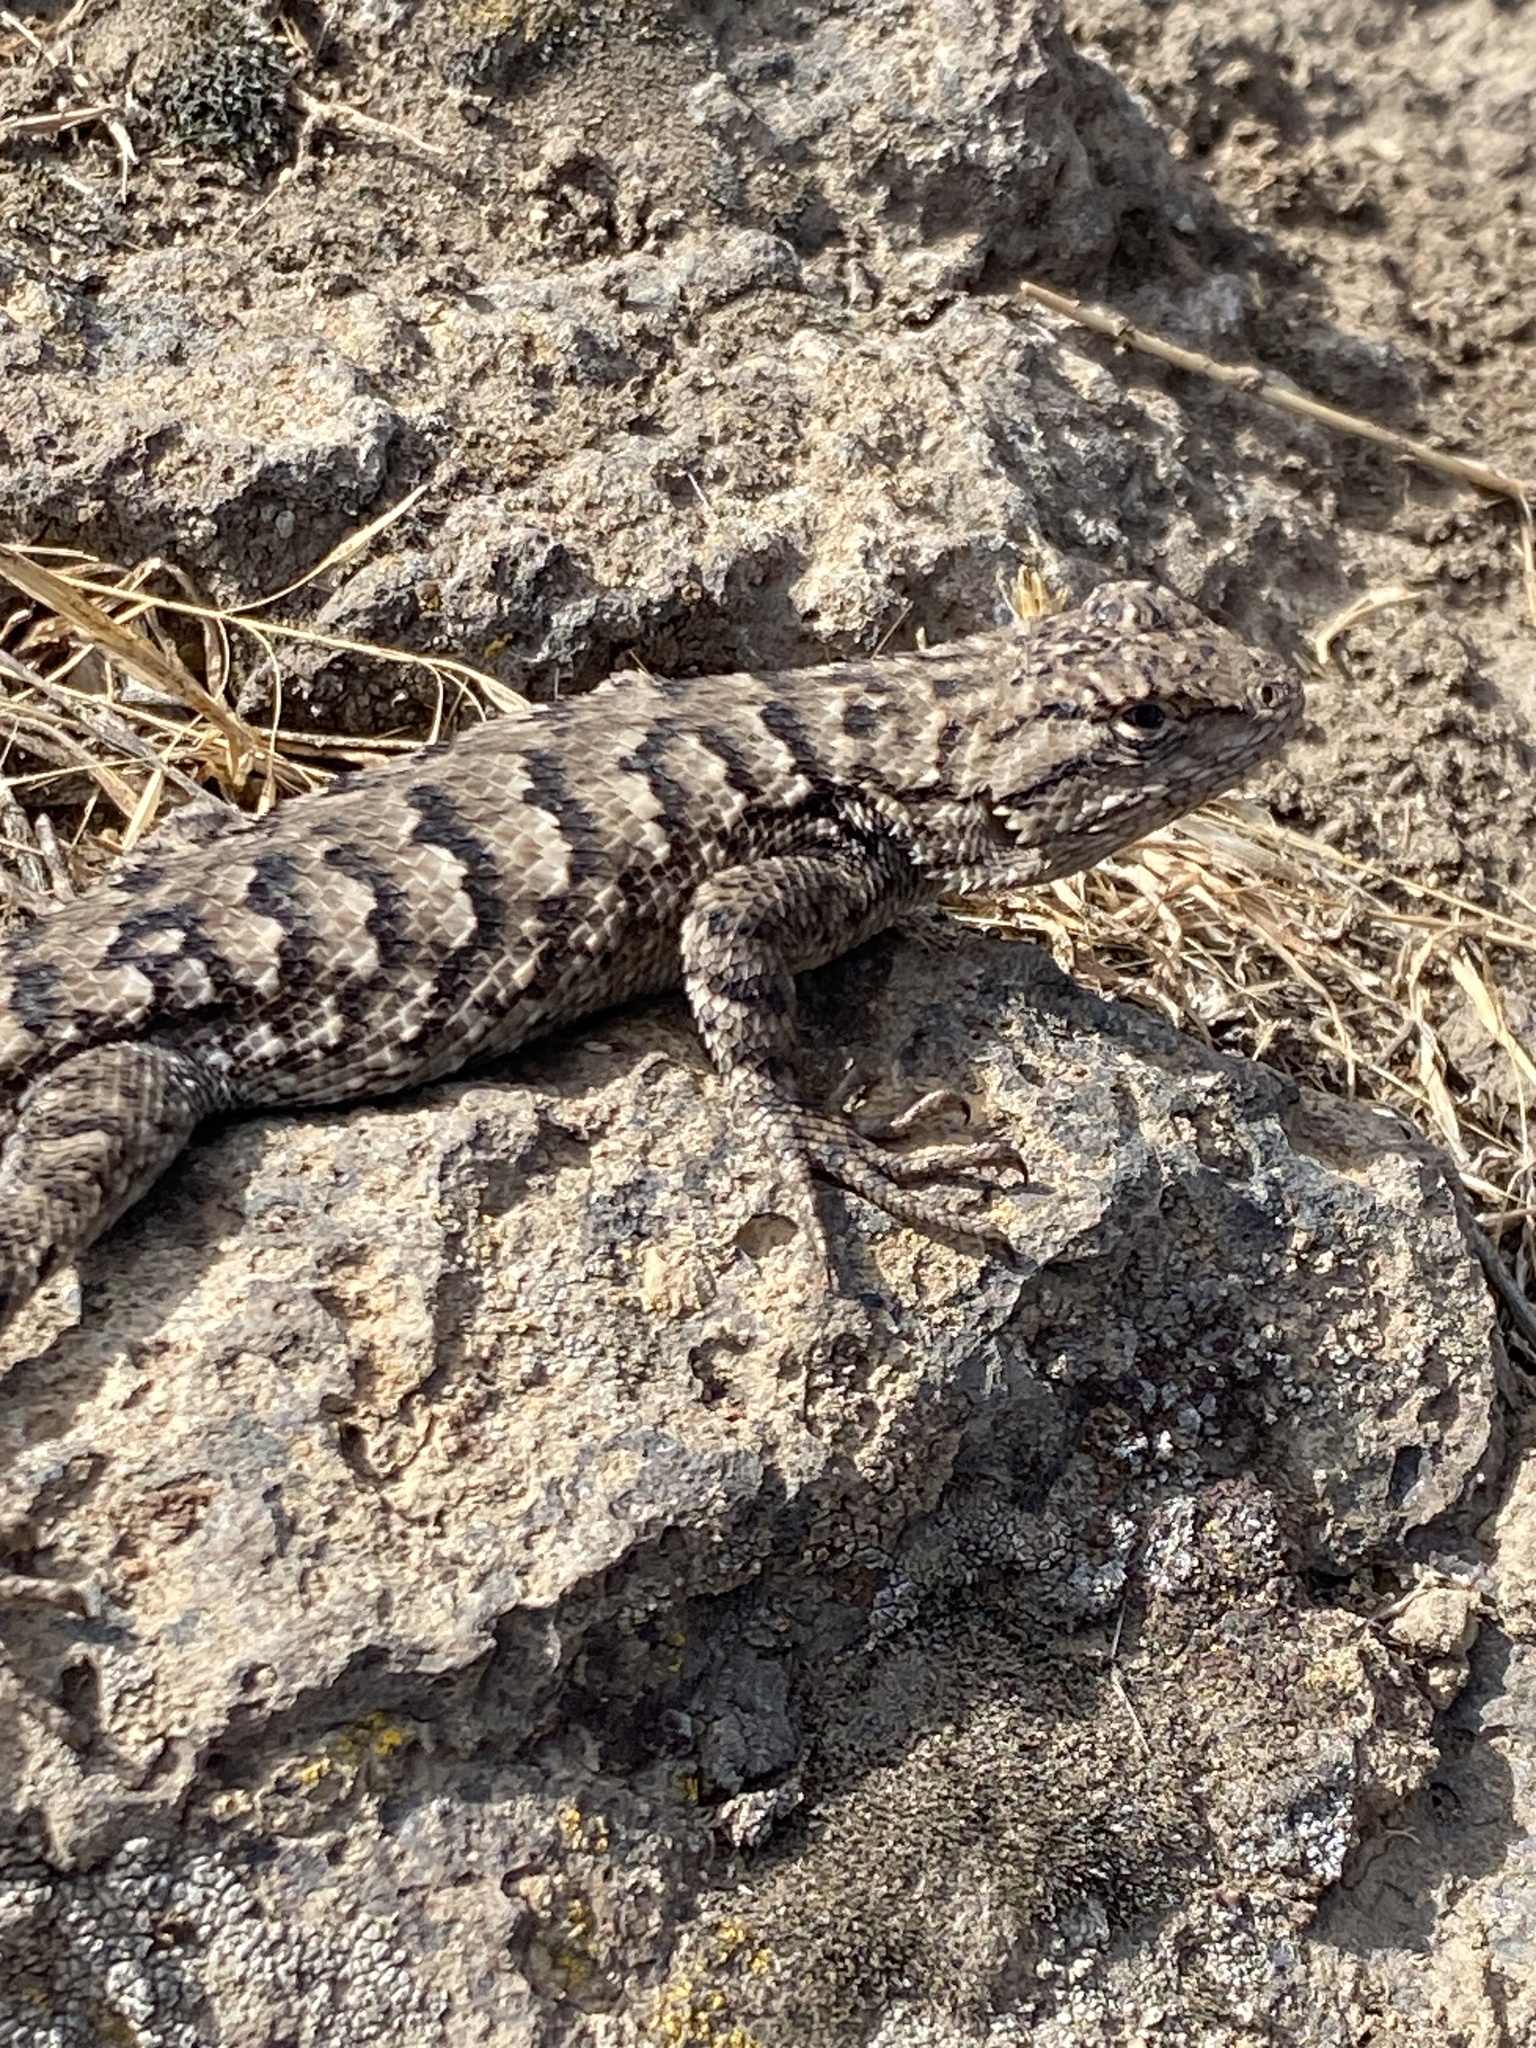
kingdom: Animalia
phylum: Chordata
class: Squamata
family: Phrynosomatidae
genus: Sceloporus
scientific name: Sceloporus occidentalis
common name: Western fence lizard
